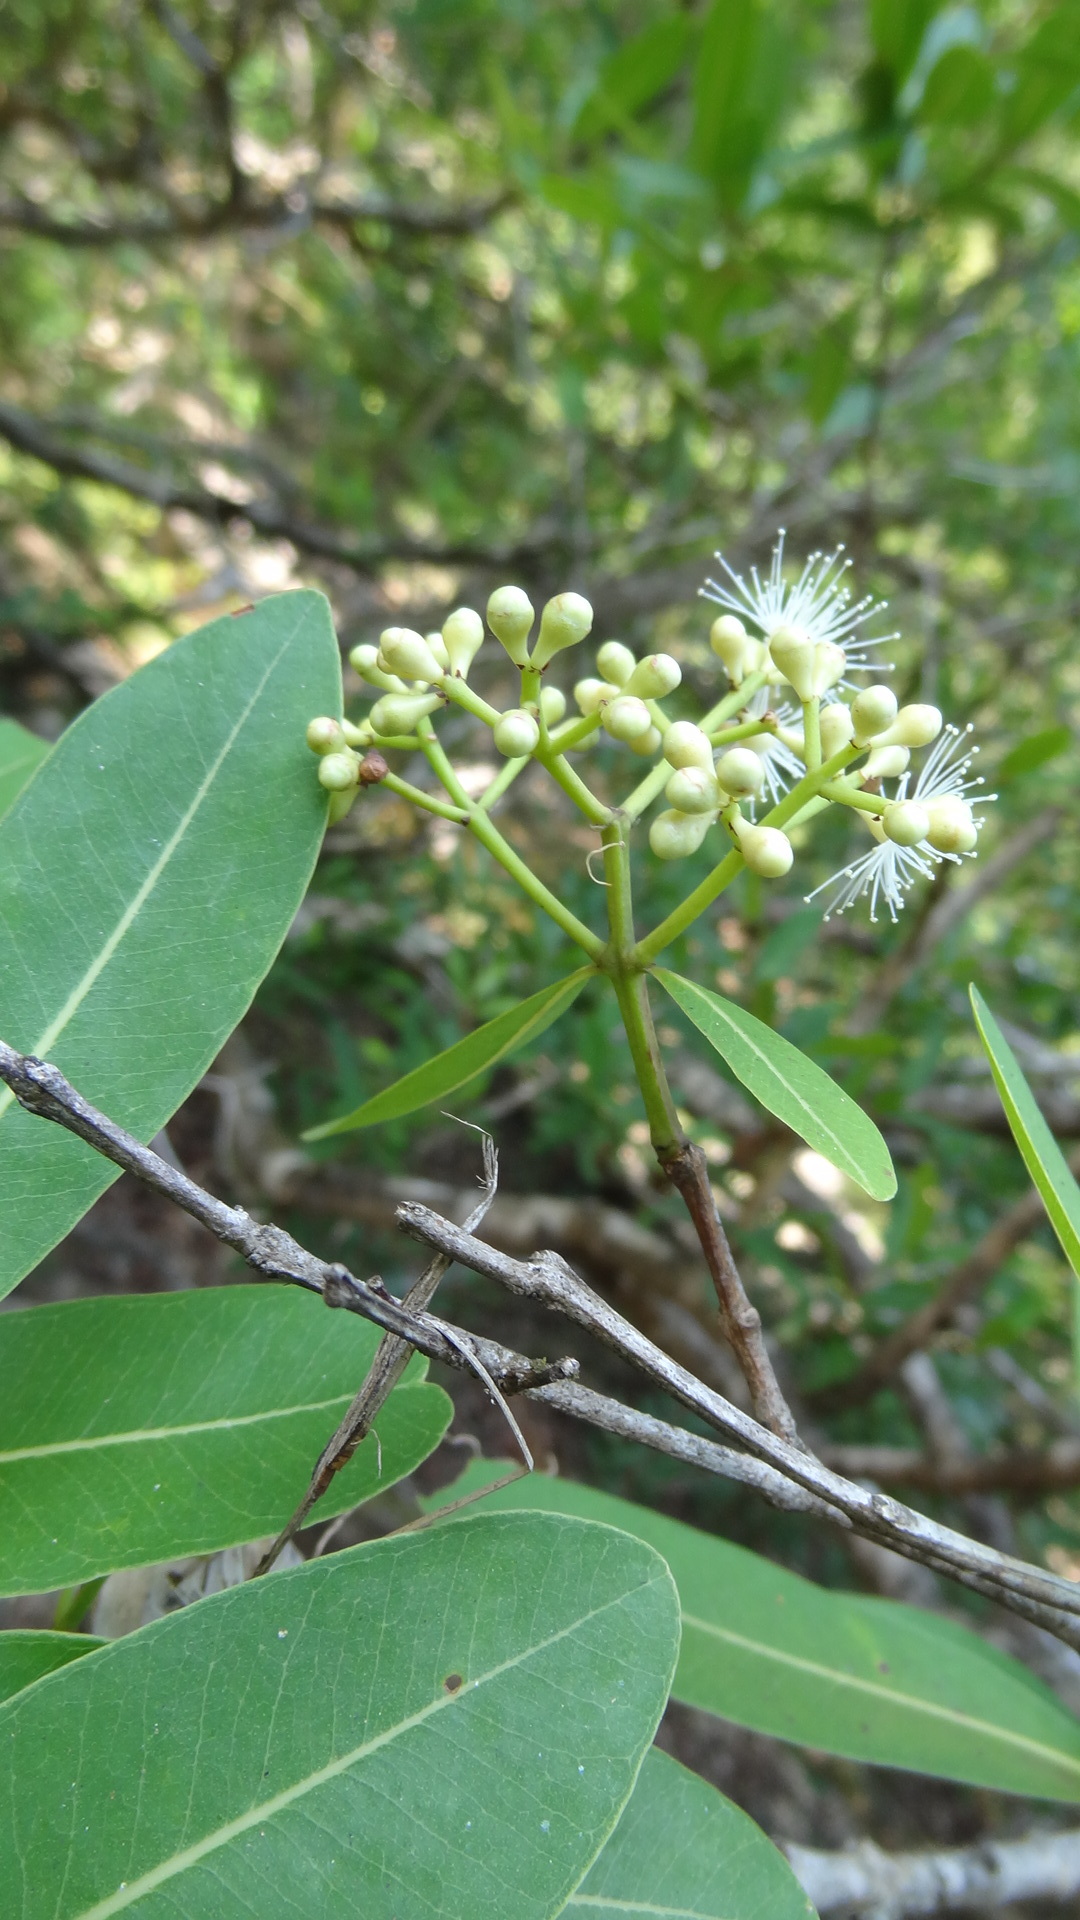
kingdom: Plantae
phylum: Tracheophyta
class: Magnoliopsida
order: Myrtales
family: Myrtaceae
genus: Syzygium
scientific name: Syzygium salicifolium
